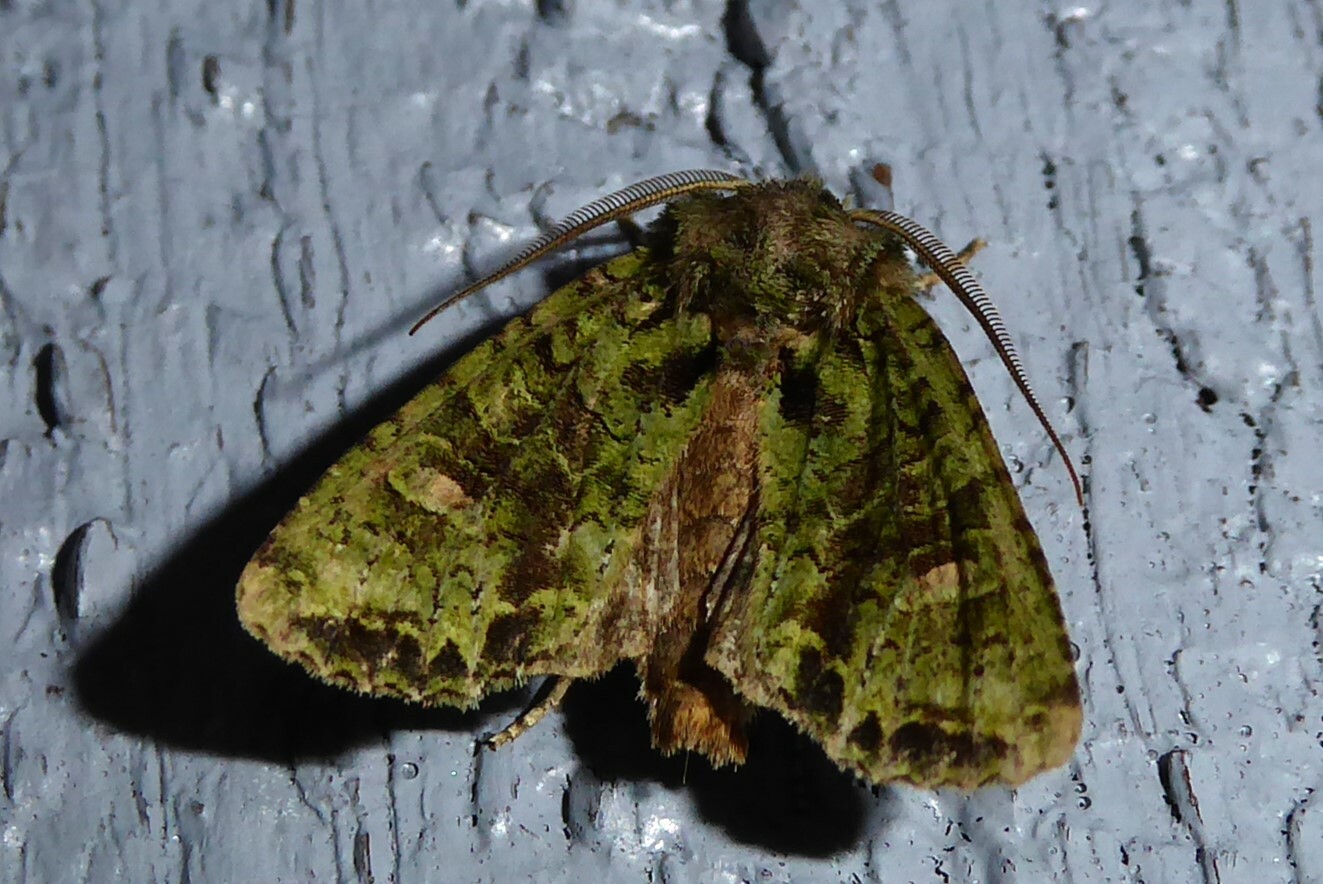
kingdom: Animalia
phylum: Arthropoda
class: Insecta
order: Lepidoptera
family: Noctuidae
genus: Ichneutica
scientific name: Ichneutica
